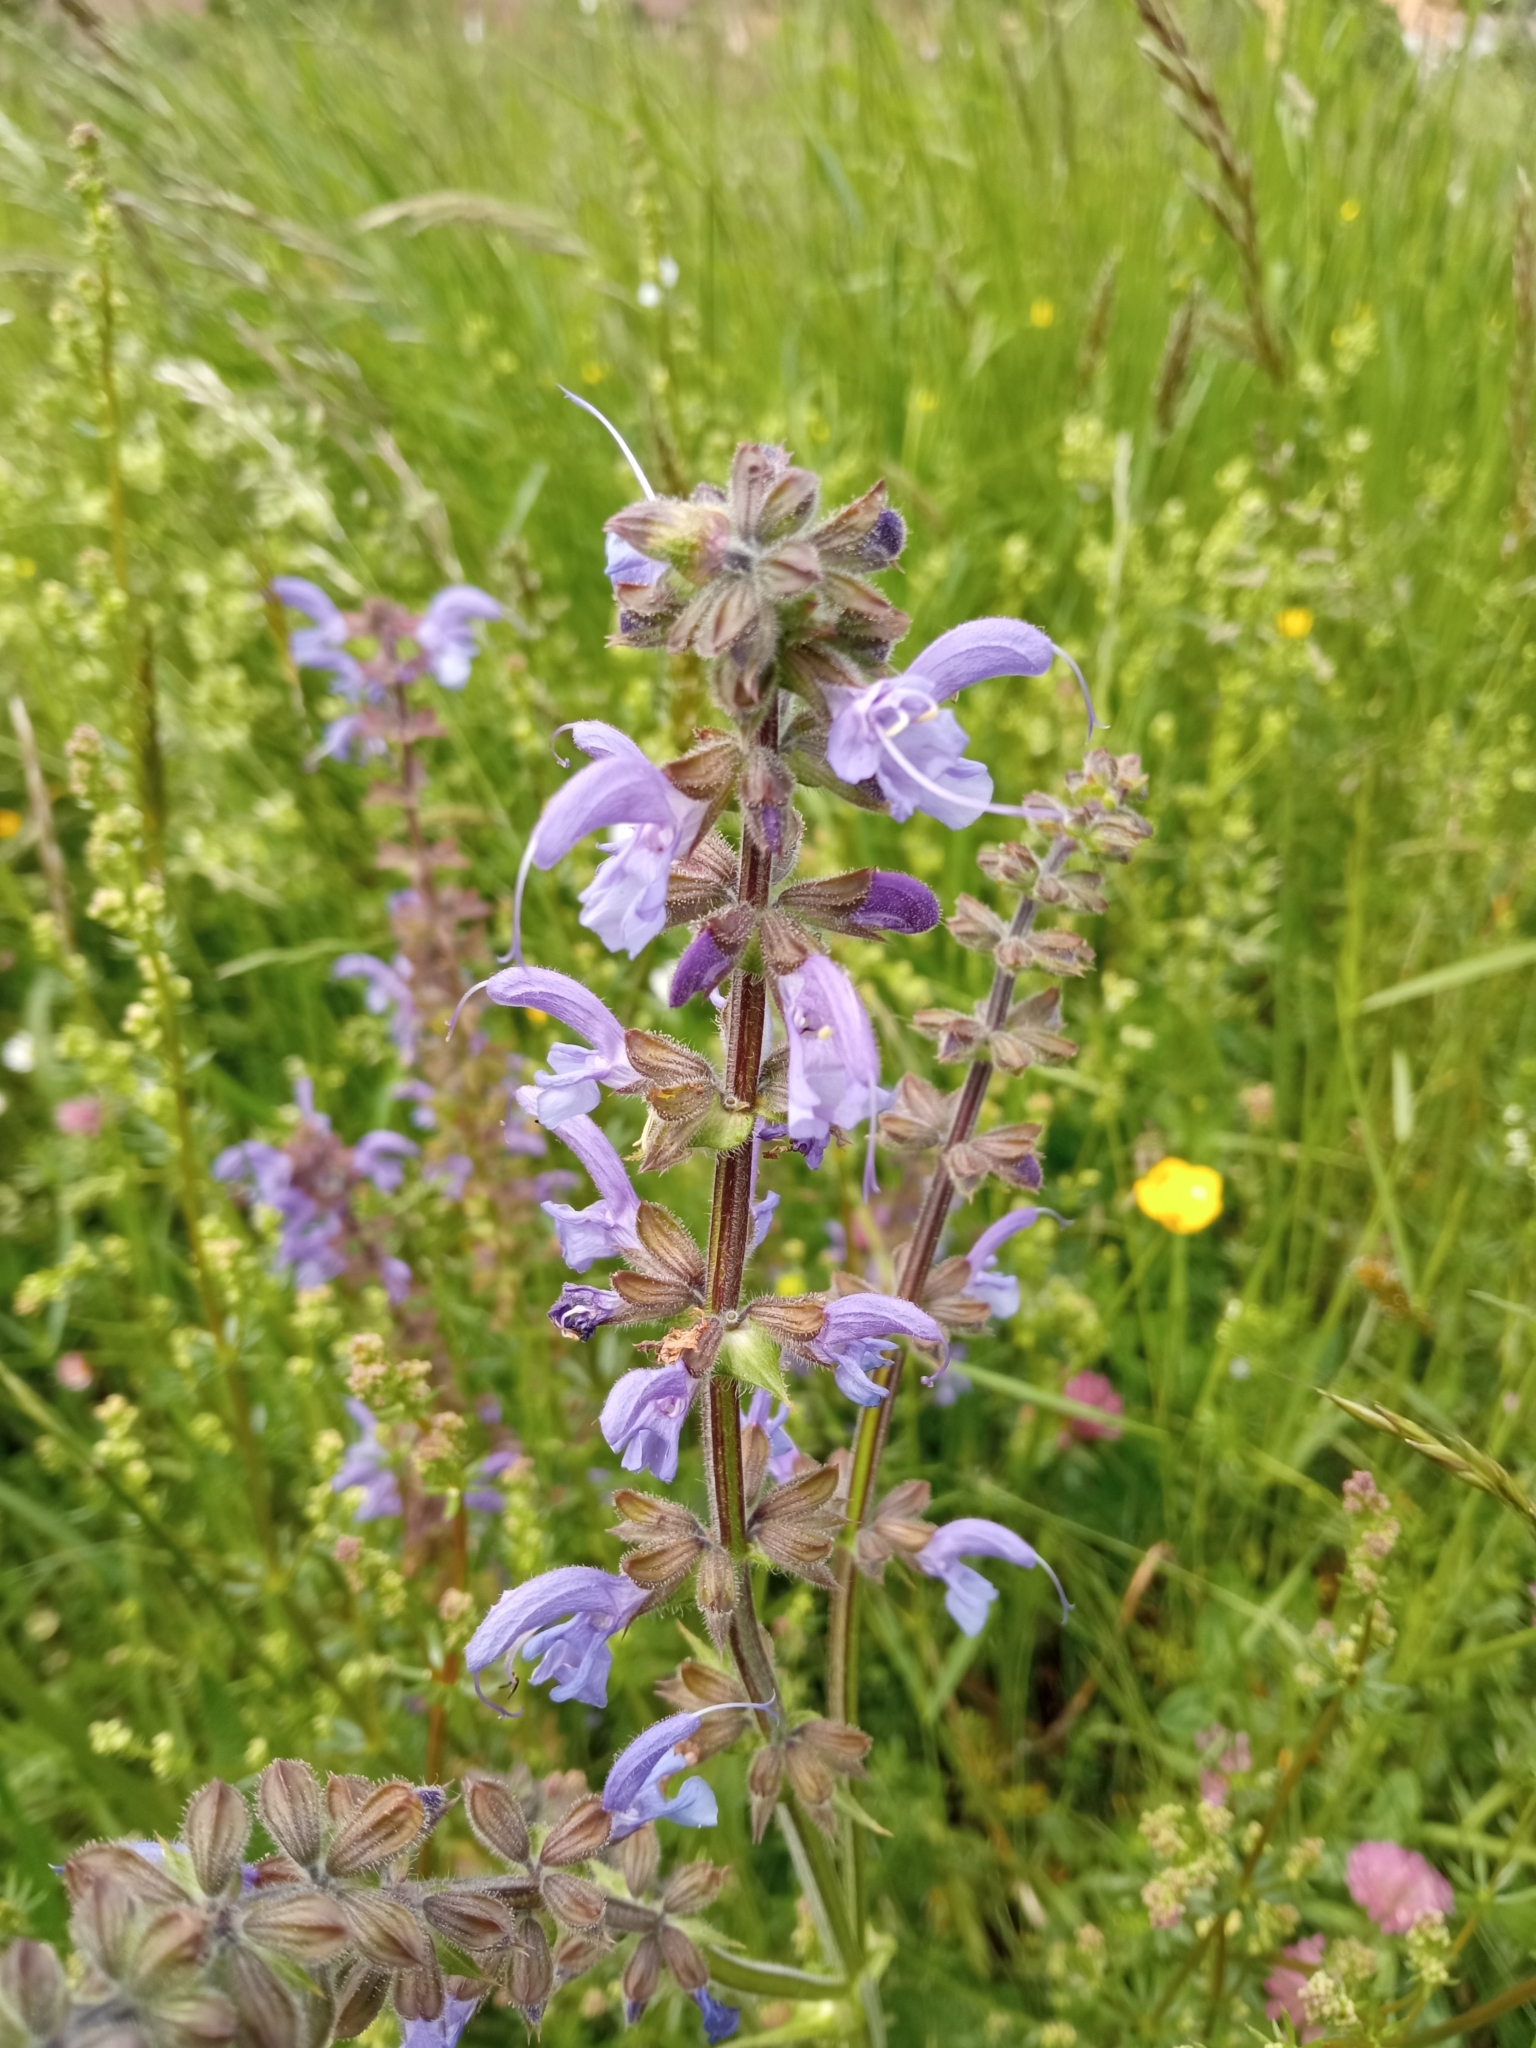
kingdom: Plantae
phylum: Tracheophyta
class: Magnoliopsida
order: Lamiales
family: Lamiaceae
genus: Salvia
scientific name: Salvia pratensis
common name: Meadow sage
